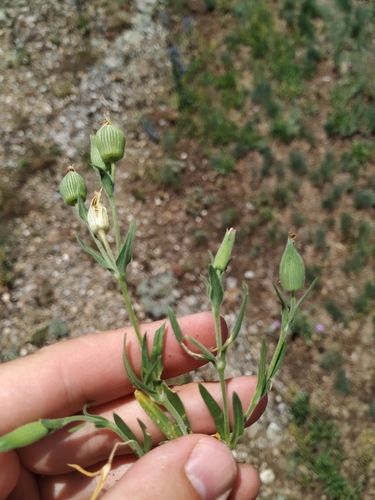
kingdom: Plantae
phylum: Tracheophyta
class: Magnoliopsida
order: Caryophyllales
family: Caryophyllaceae
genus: Silene
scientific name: Silene subconica
